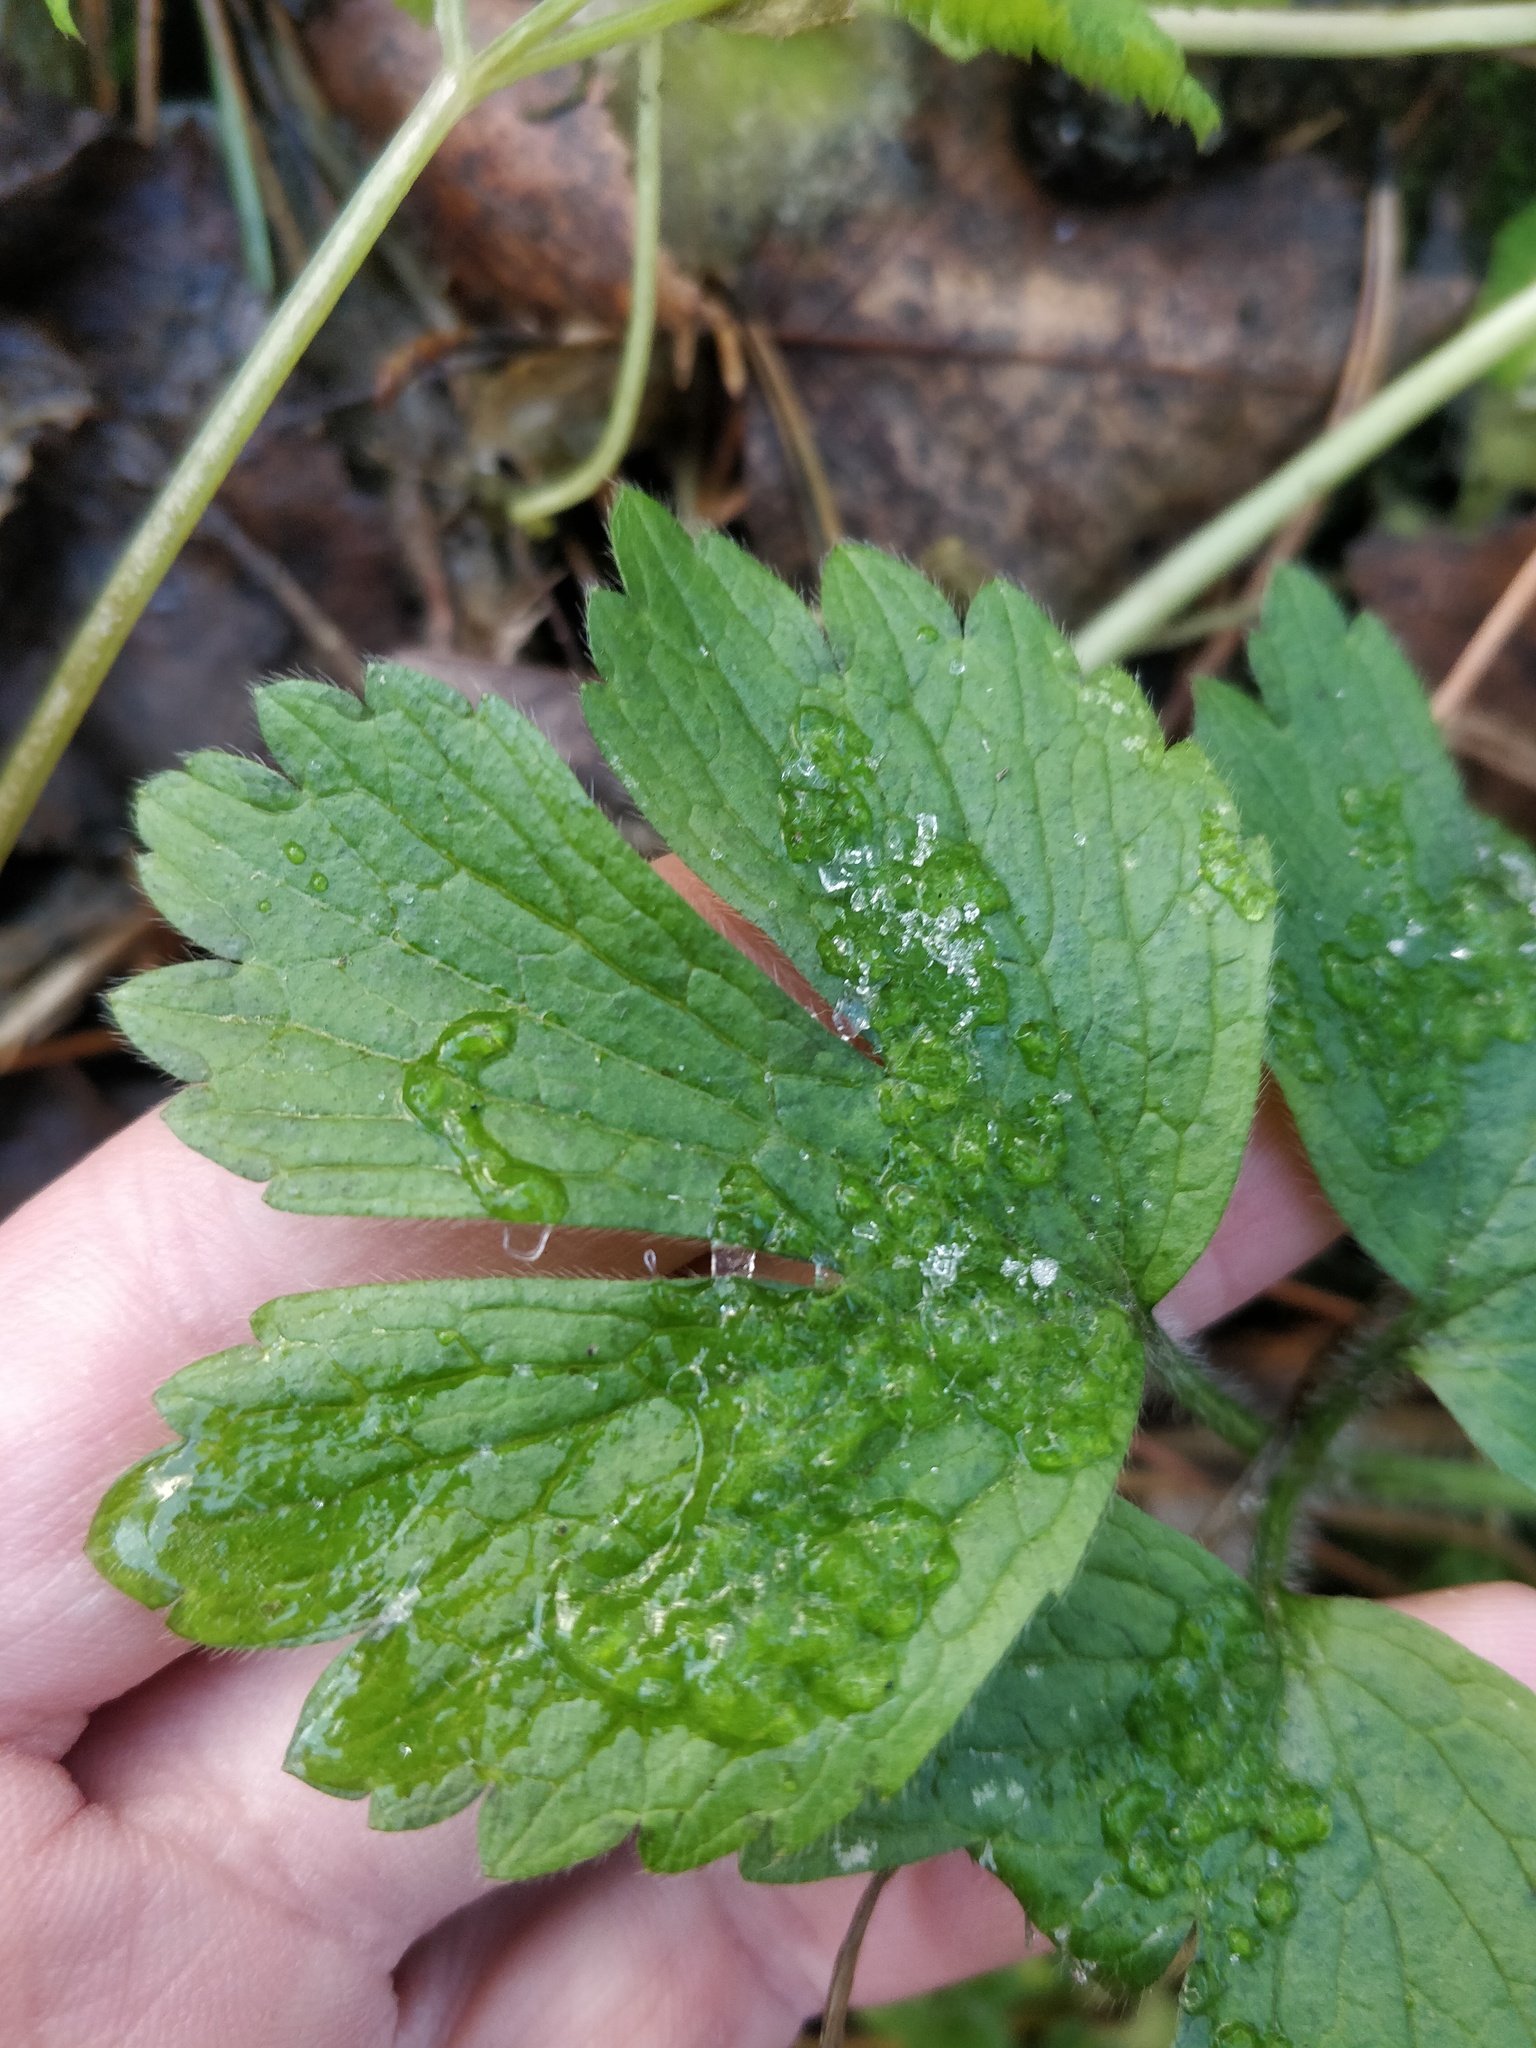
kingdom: Plantae
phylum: Tracheophyta
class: Magnoliopsida
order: Ranunculales
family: Ranunculaceae
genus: Ranunculus
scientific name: Ranunculus repens
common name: Creeping buttercup
